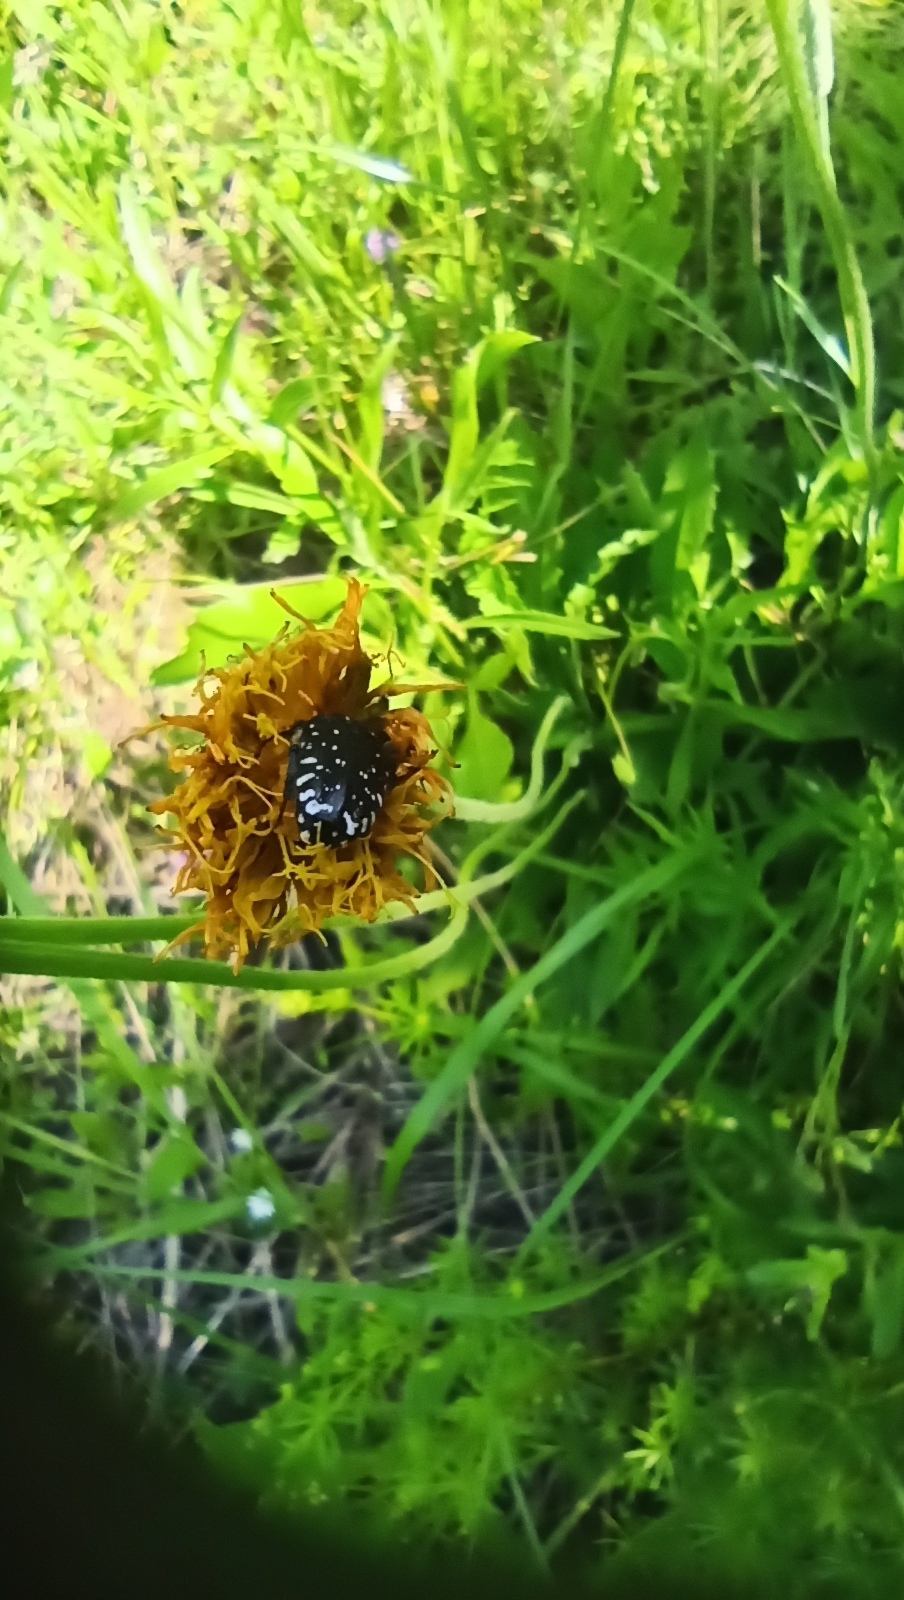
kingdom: Animalia
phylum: Arthropoda
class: Insecta
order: Coleoptera
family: Scarabaeidae
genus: Oxythyrea
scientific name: Oxythyrea funesta
